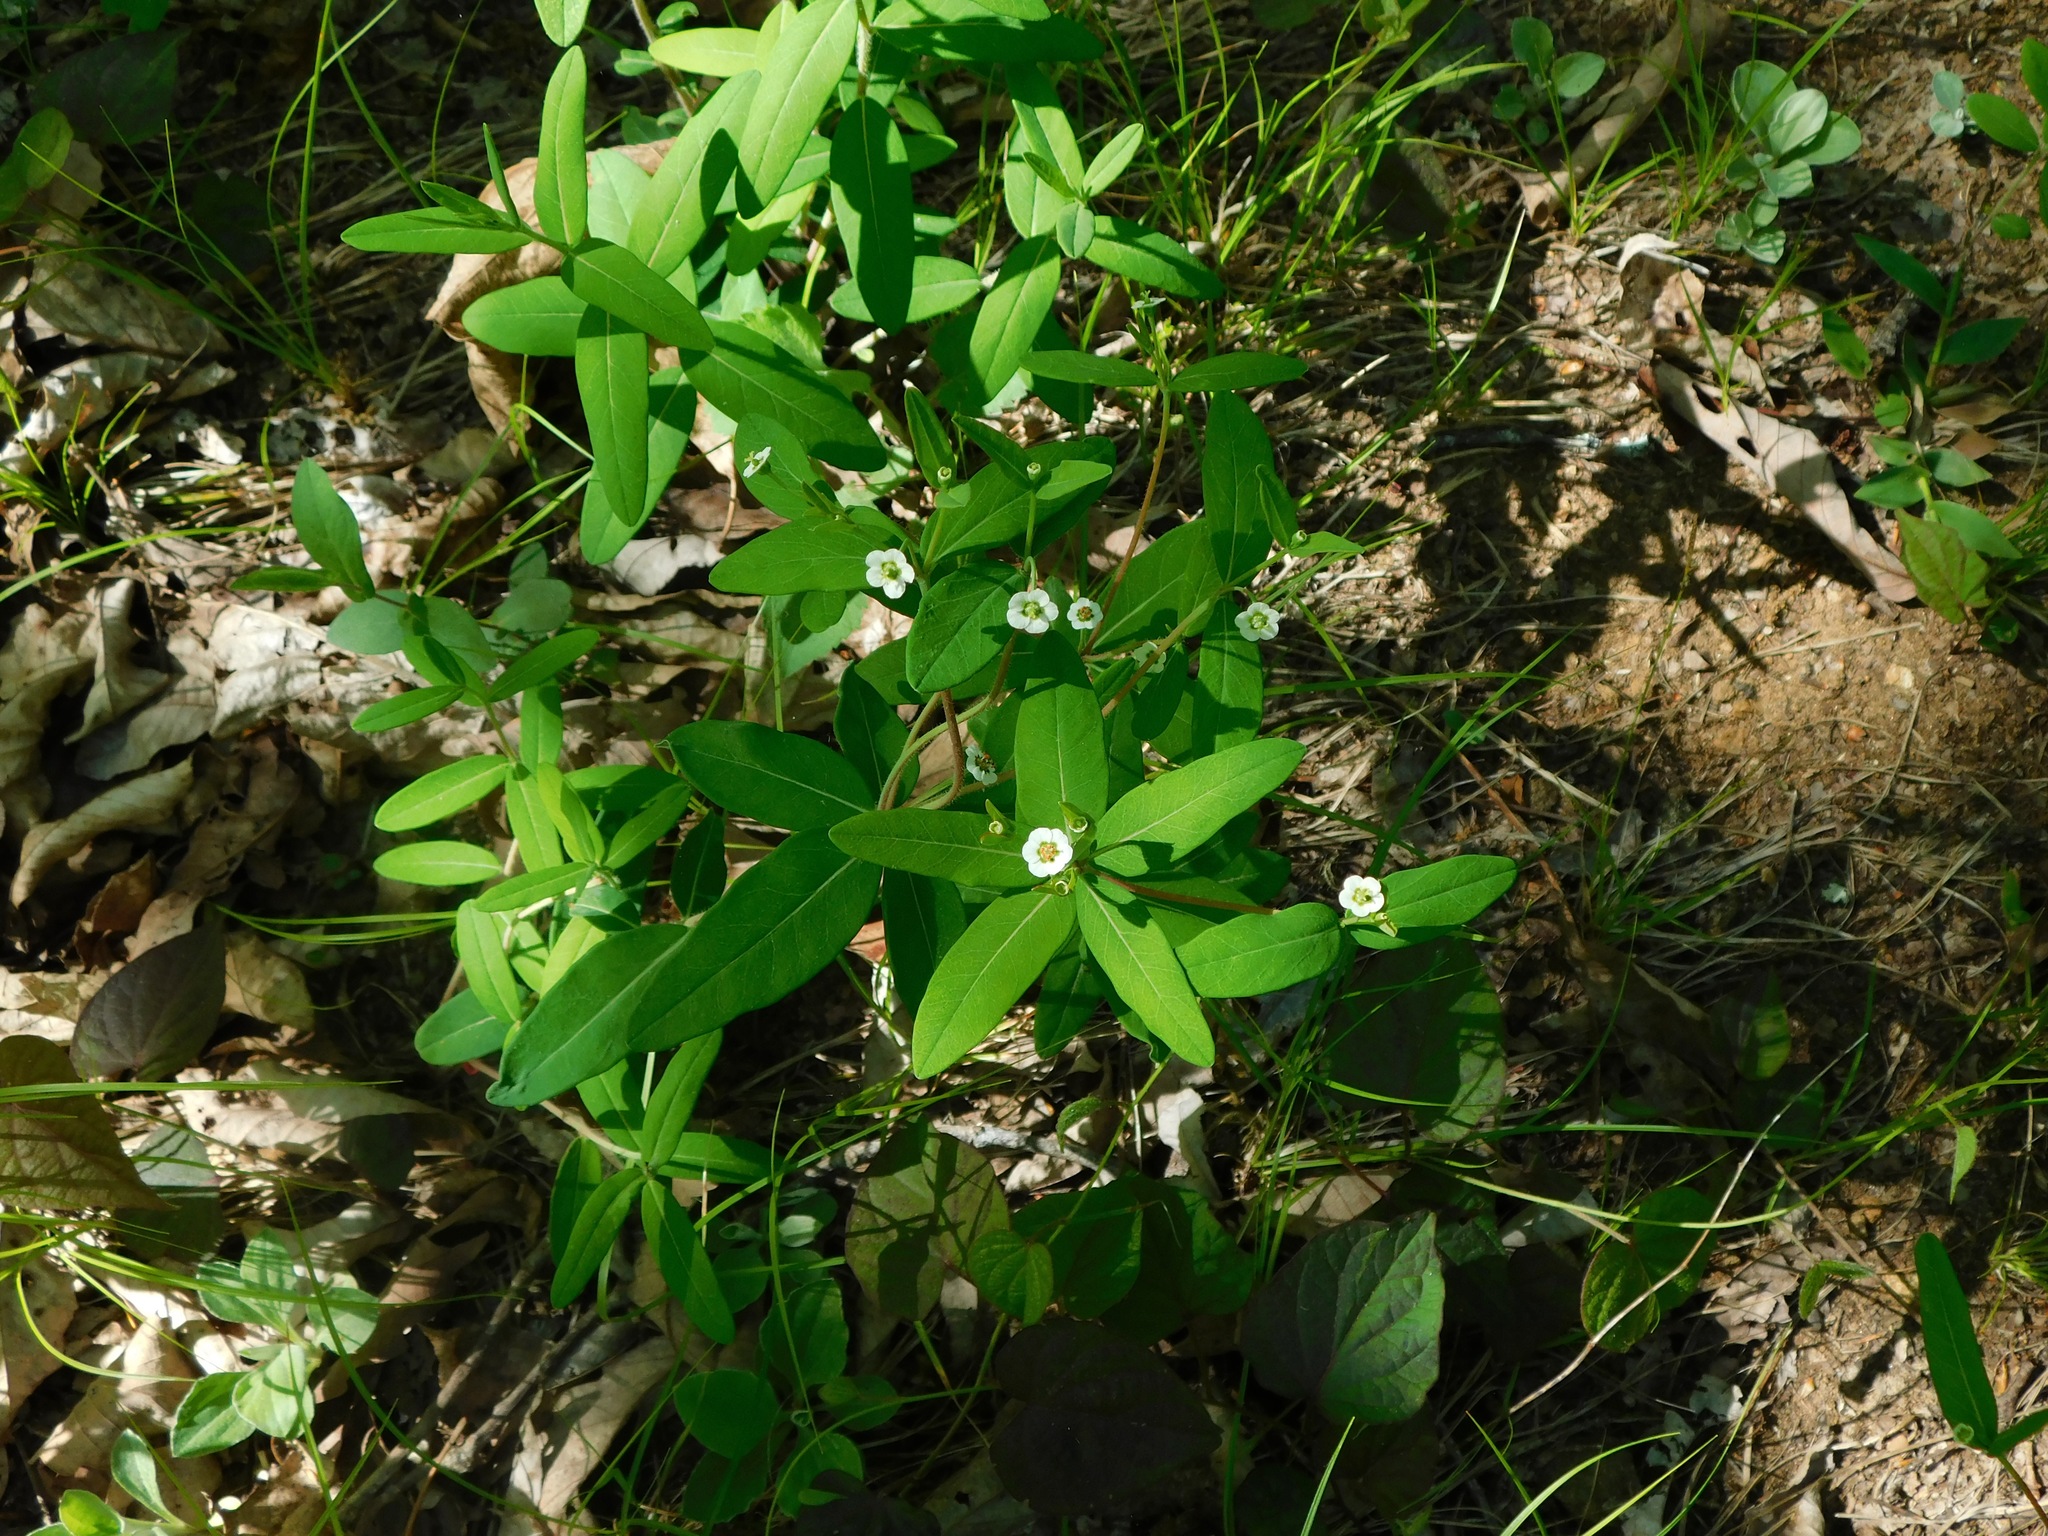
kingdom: Plantae
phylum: Tracheophyta
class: Magnoliopsida
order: Malpighiales
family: Euphorbiaceae
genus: Euphorbia
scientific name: Euphorbia corollata
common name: Flowering spurge
